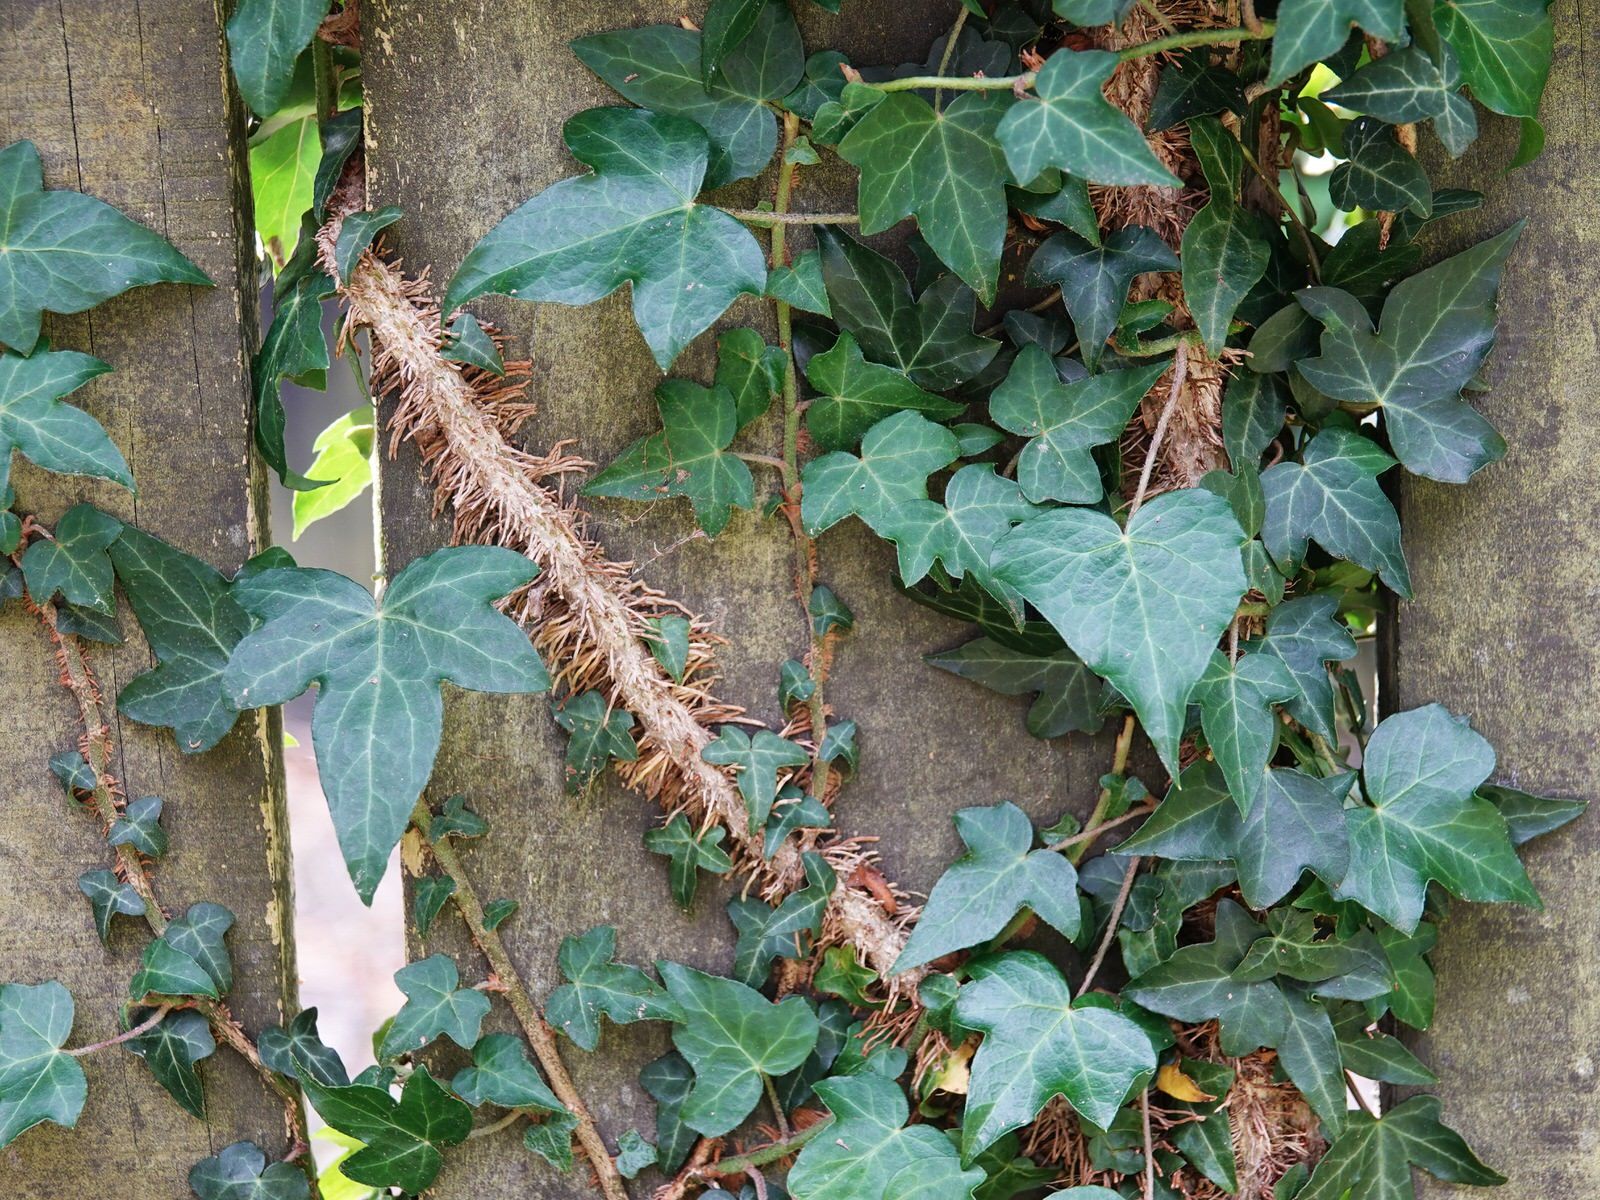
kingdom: Plantae
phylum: Tracheophyta
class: Magnoliopsida
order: Apiales
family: Araliaceae
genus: Hedera
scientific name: Hedera helix
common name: Ivy
